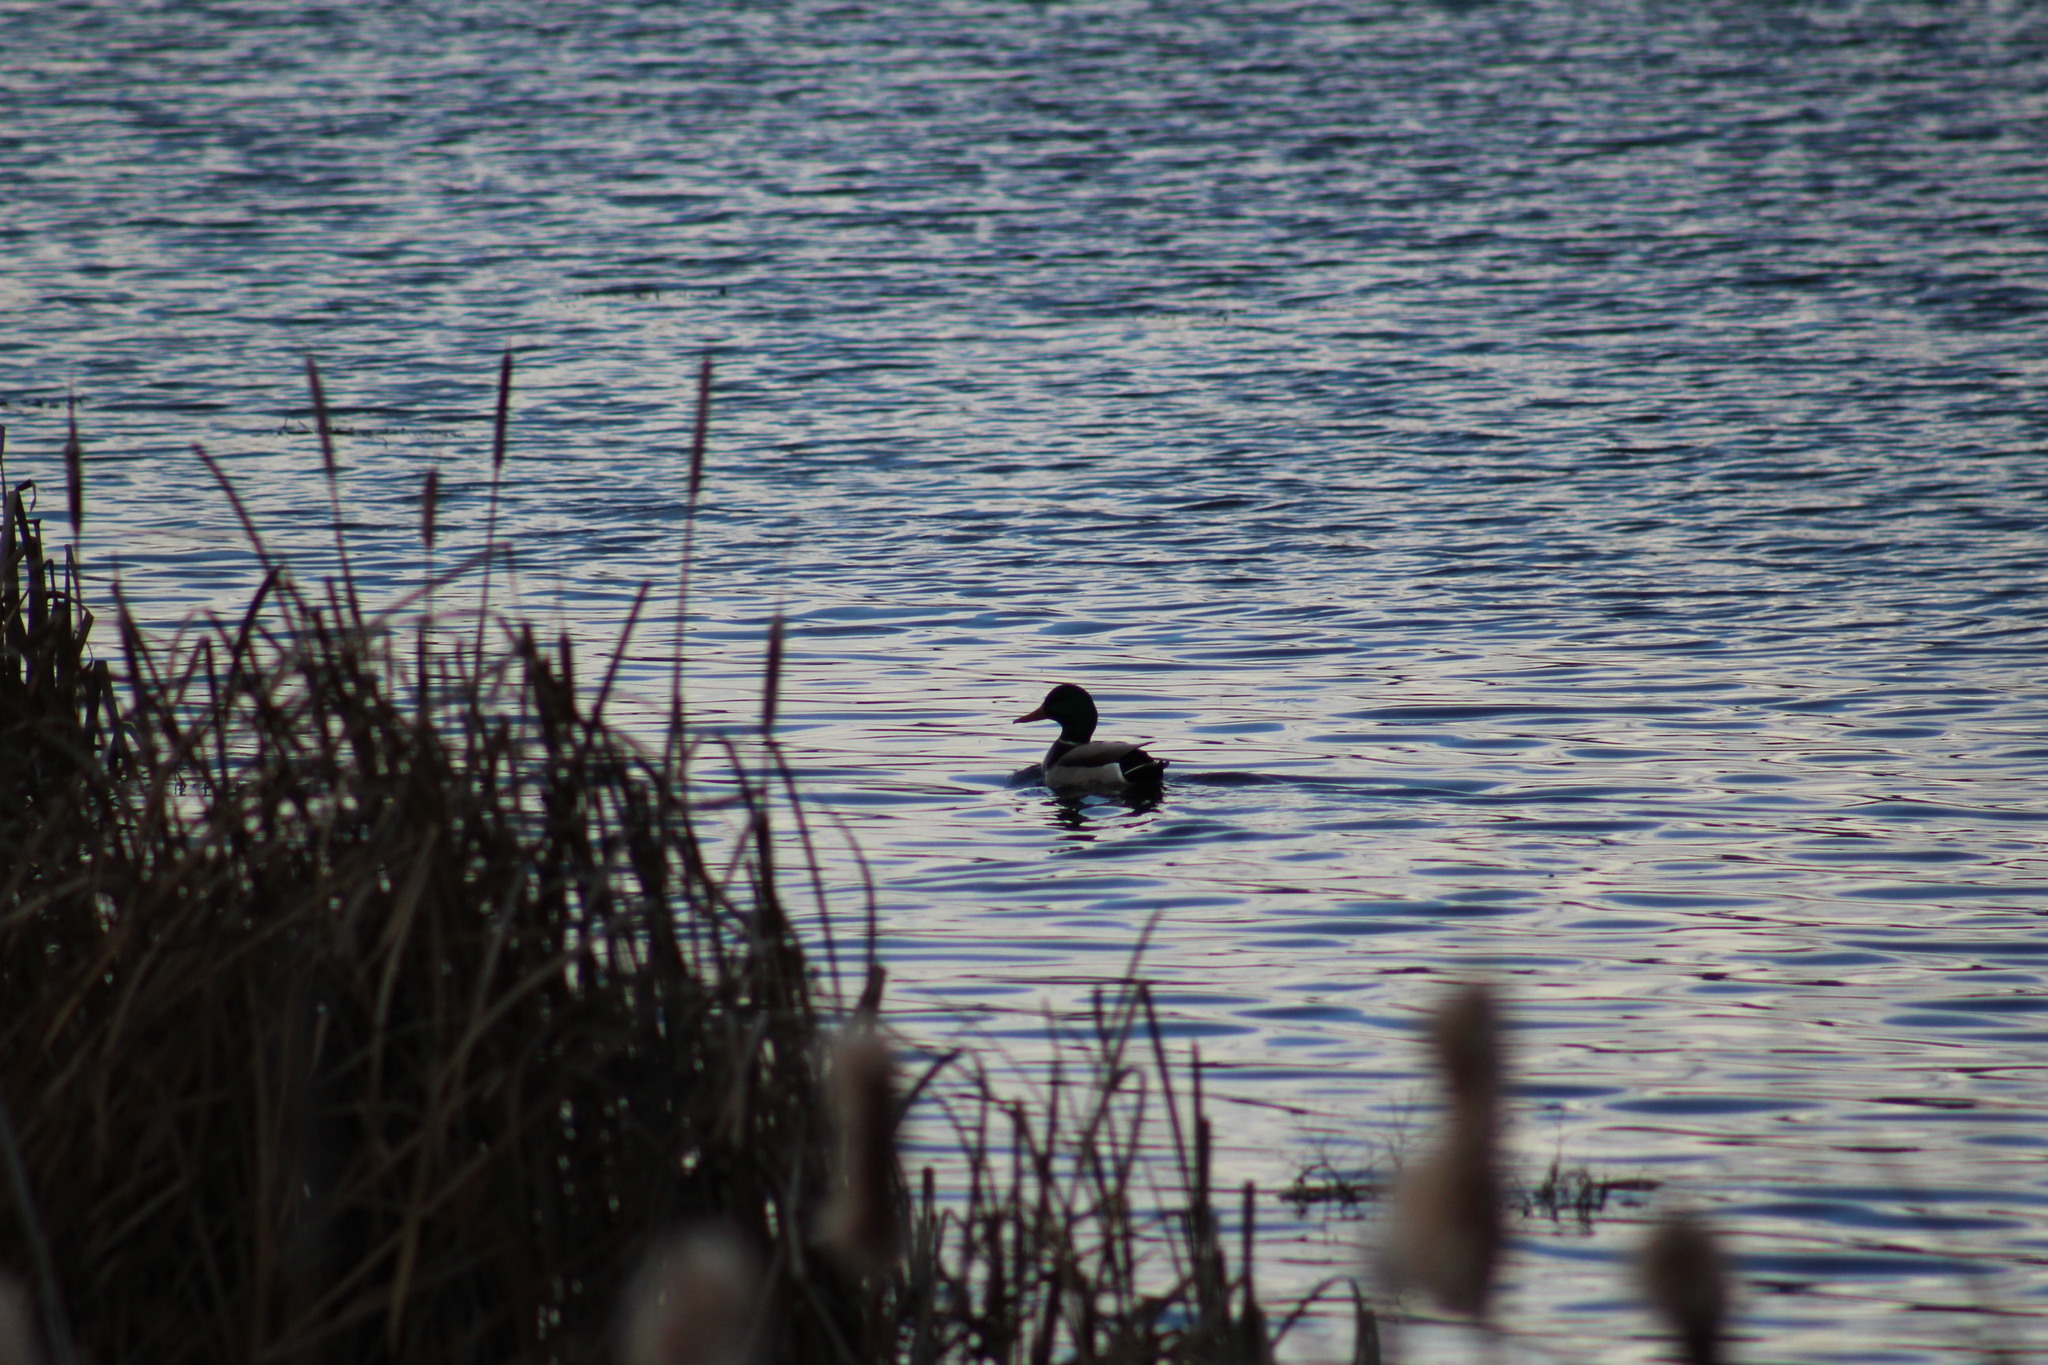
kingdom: Animalia
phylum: Chordata
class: Aves
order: Anseriformes
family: Anatidae
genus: Anas
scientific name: Anas platyrhynchos
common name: Mallard
